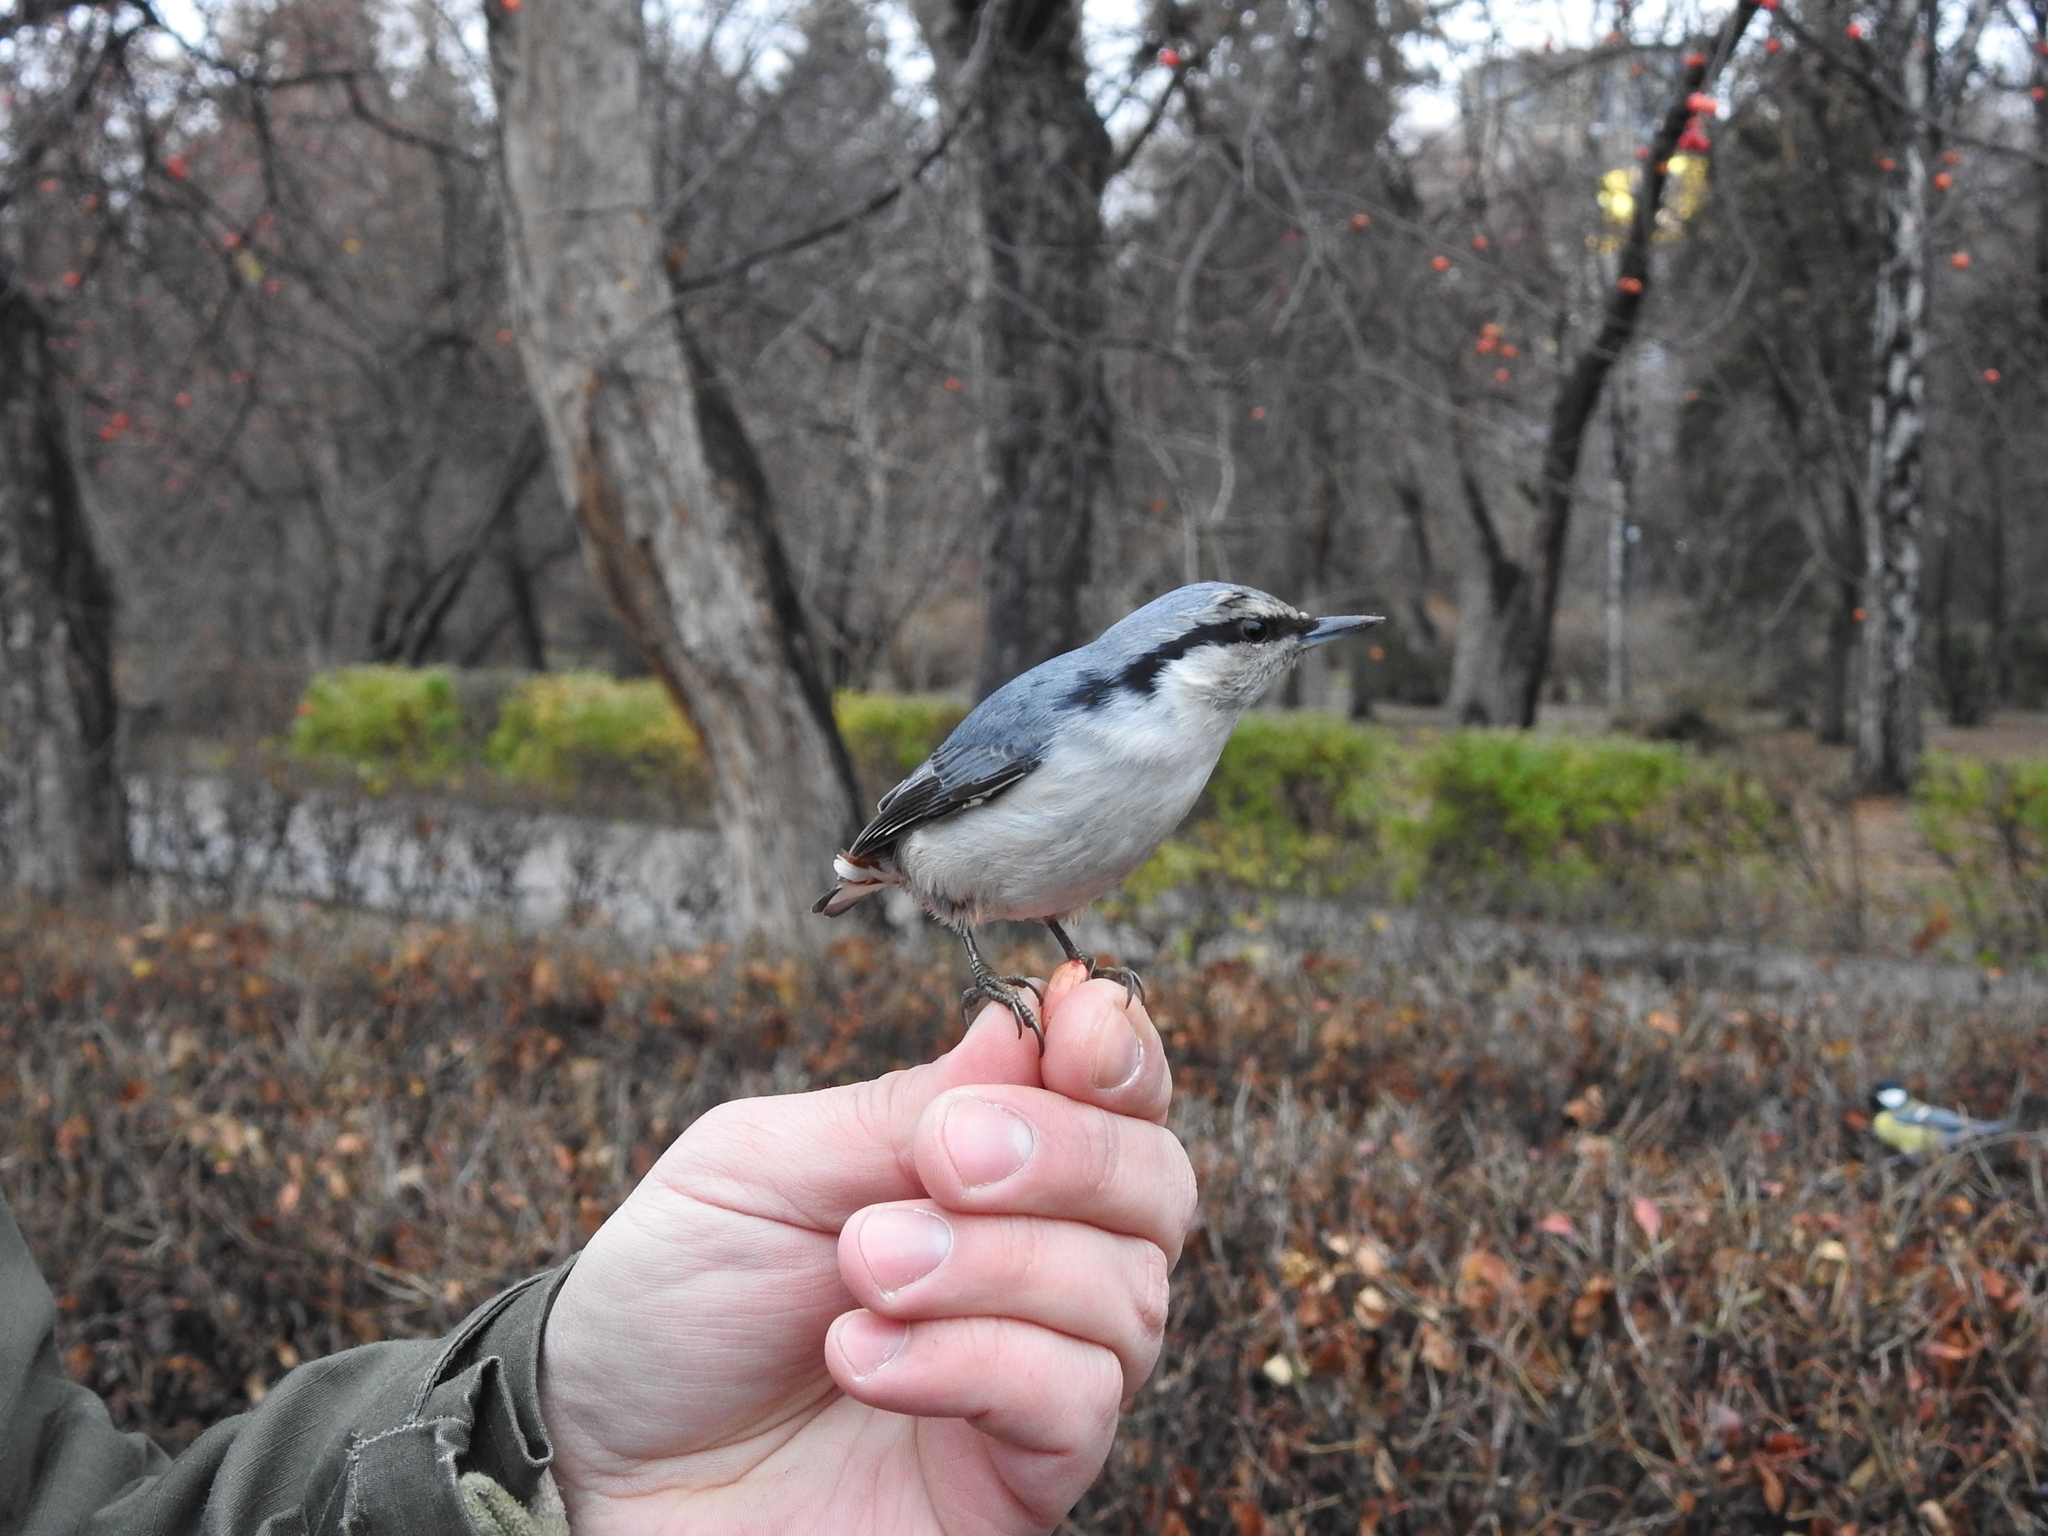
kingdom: Animalia
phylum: Chordata
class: Aves
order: Passeriformes
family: Sittidae
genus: Sitta
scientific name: Sitta europaea
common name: Eurasian nuthatch
